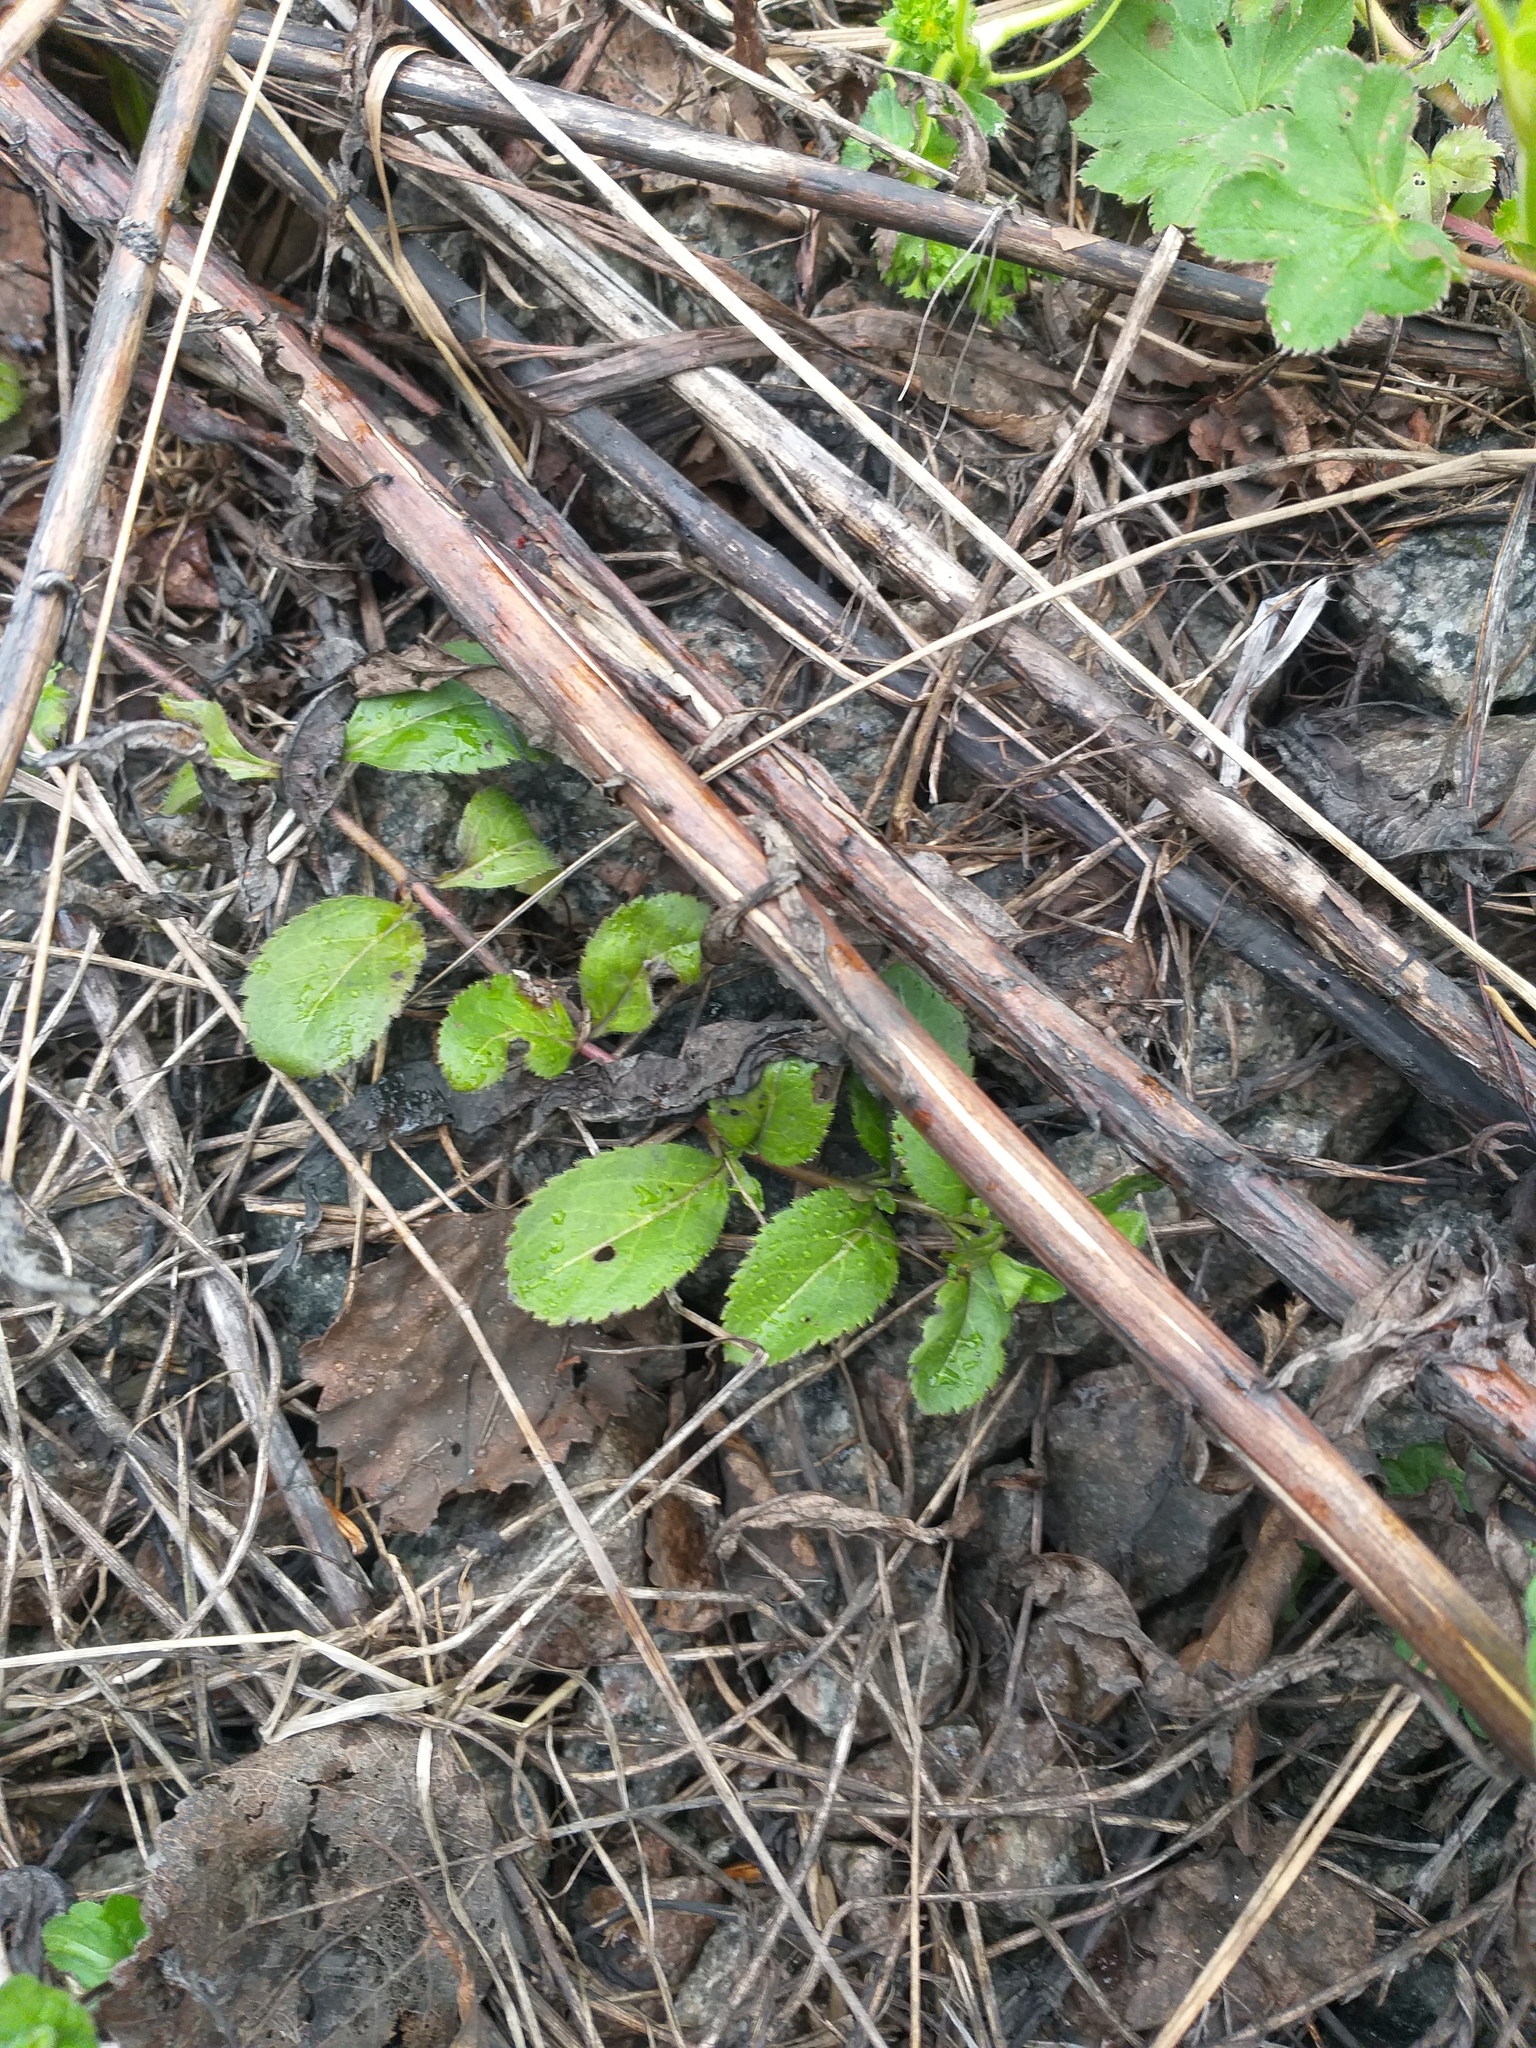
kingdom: Plantae
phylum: Tracheophyta
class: Magnoliopsida
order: Lamiales
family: Plantaginaceae
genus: Veronica
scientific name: Veronica officinalis
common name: Common speedwell
